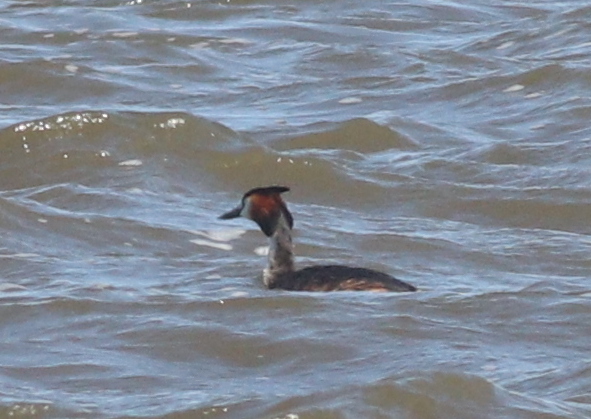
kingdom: Animalia
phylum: Chordata
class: Aves
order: Podicipediformes
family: Podicipedidae
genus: Podiceps
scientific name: Podiceps cristatus
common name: Great crested grebe
